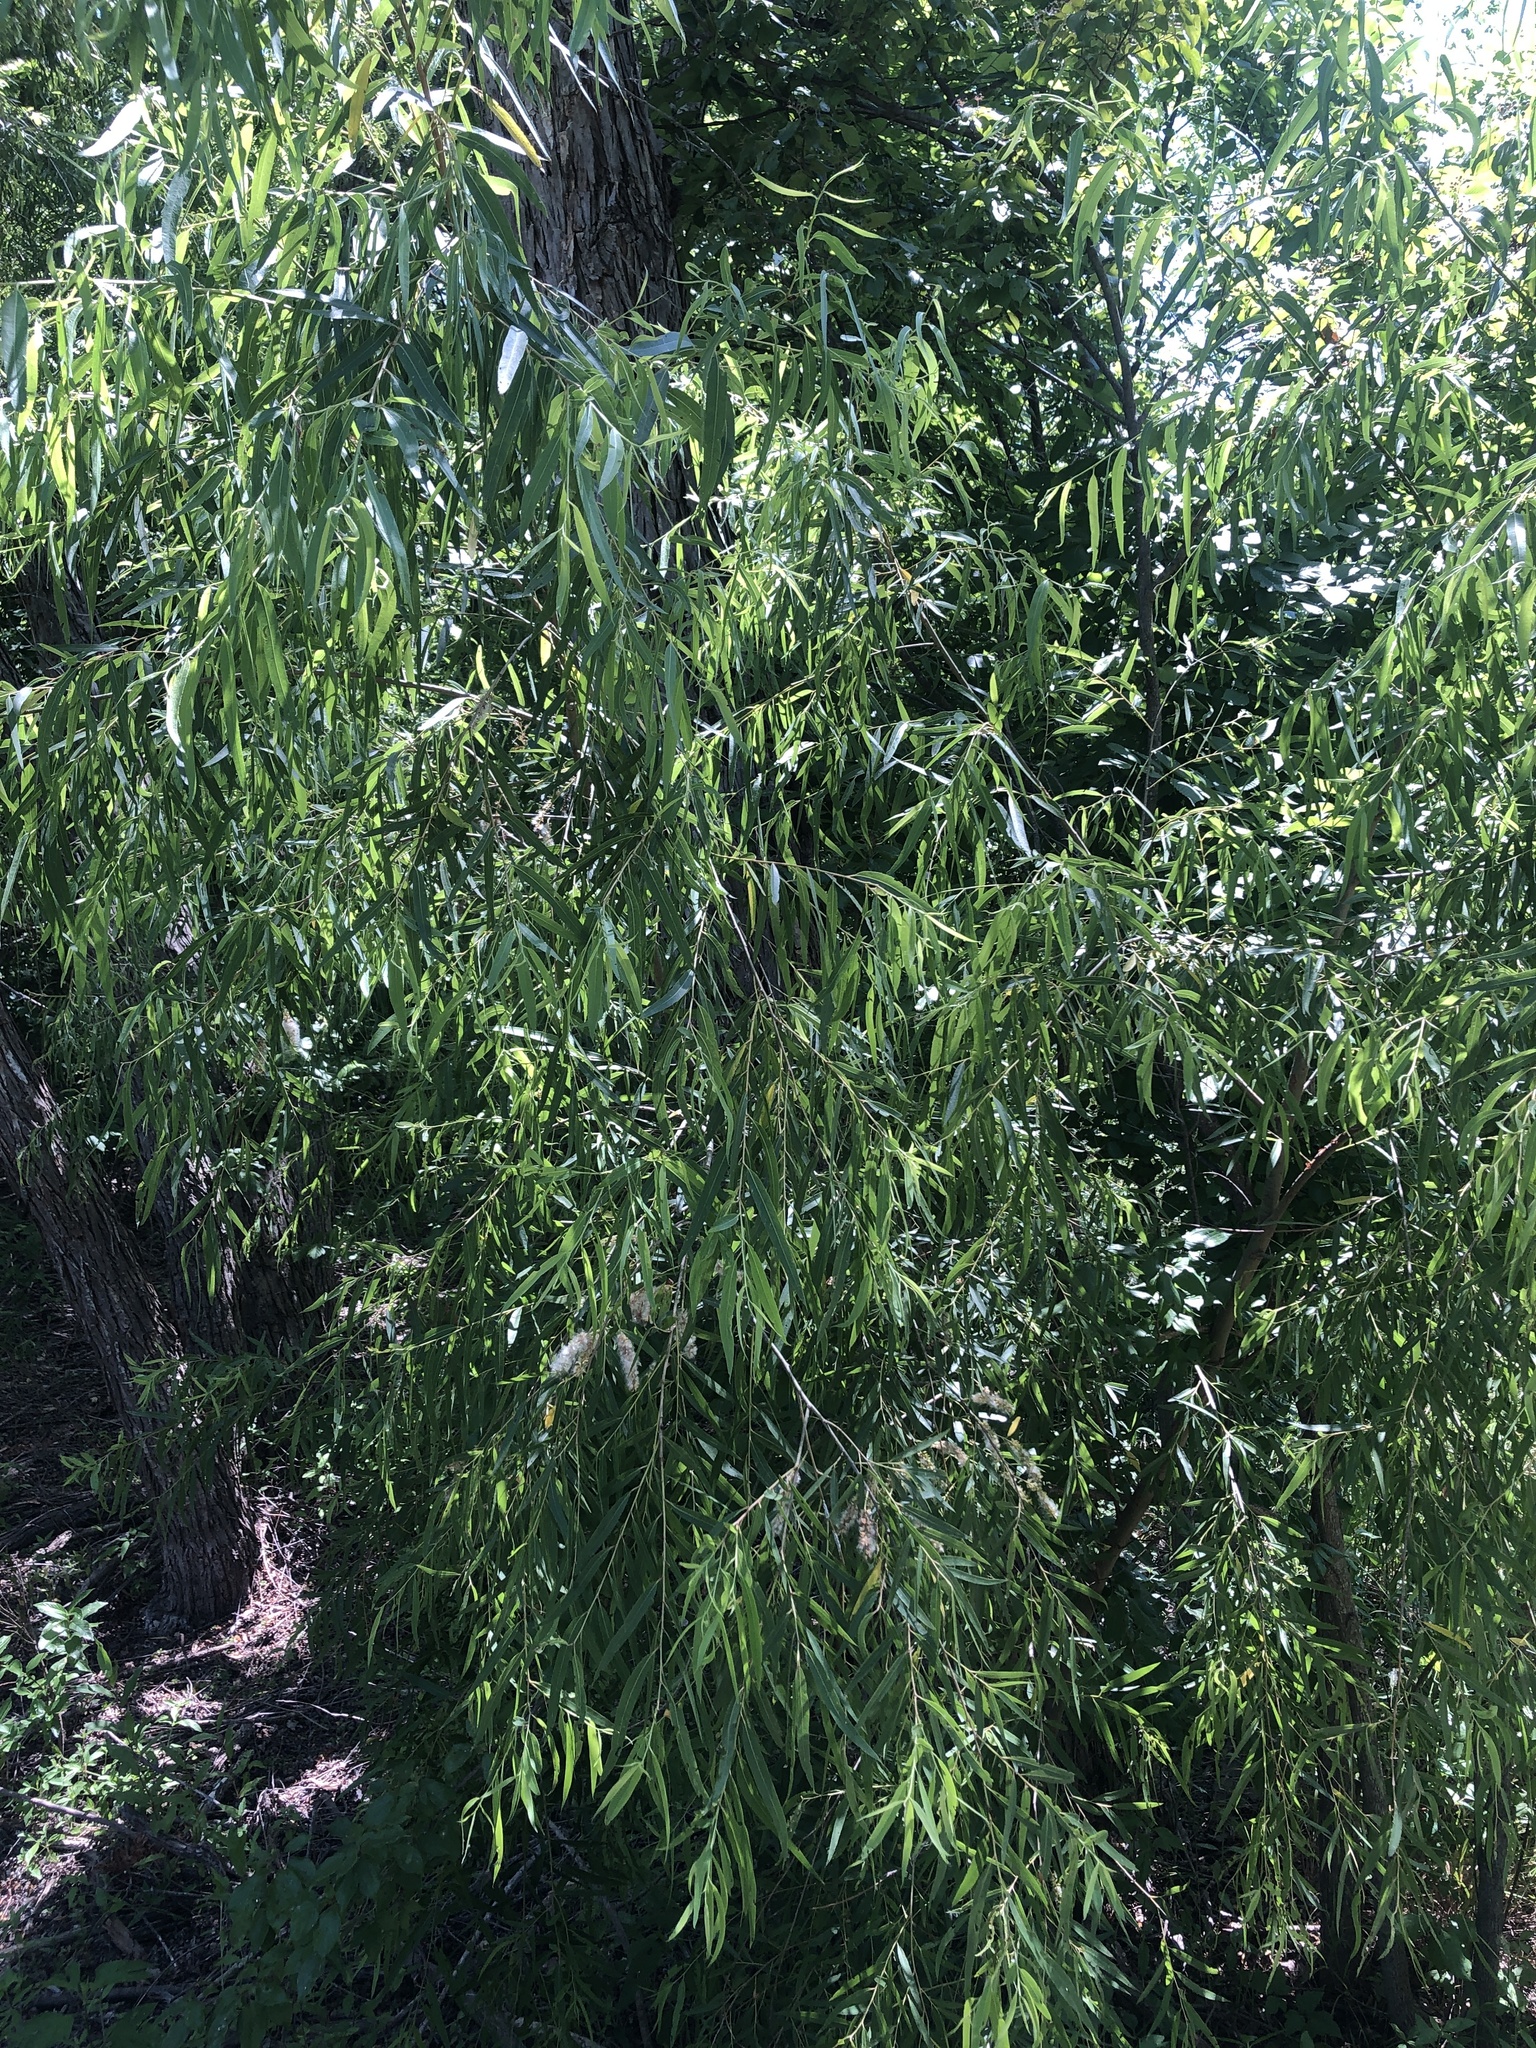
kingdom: Plantae
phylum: Tracheophyta
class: Magnoliopsida
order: Malpighiales
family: Salicaceae
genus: Salix
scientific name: Salix nigra
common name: Black willow
